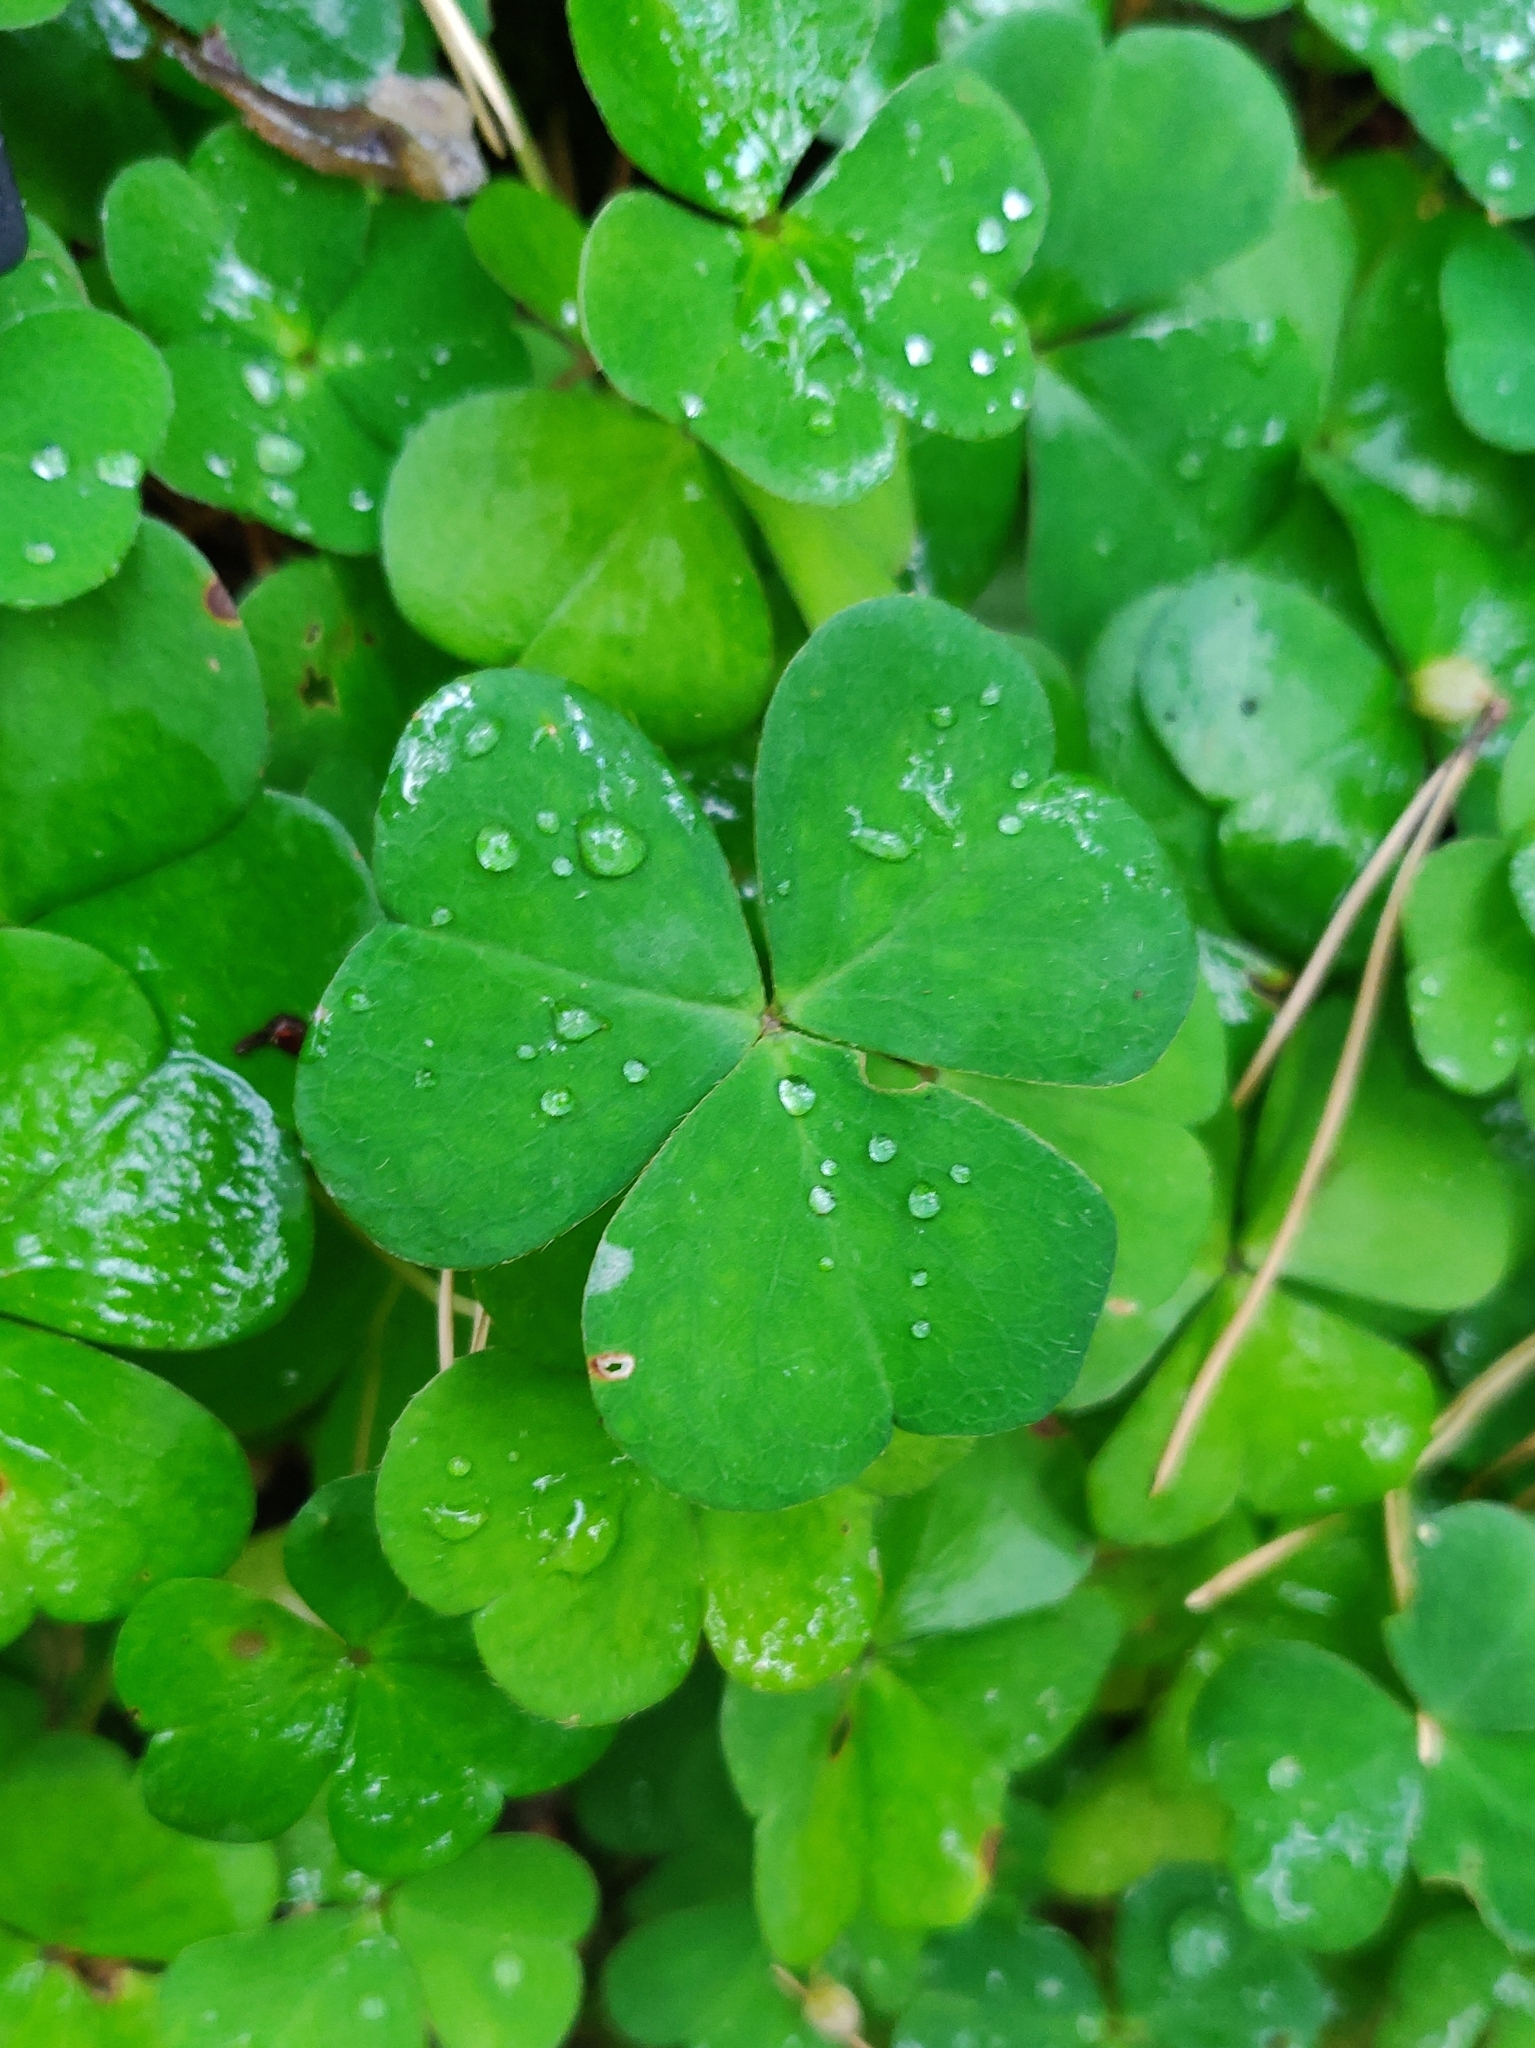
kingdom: Plantae
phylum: Tracheophyta
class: Magnoliopsida
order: Oxalidales
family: Oxalidaceae
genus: Oxalis
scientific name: Oxalis acetosella
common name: Wood-sorrel
